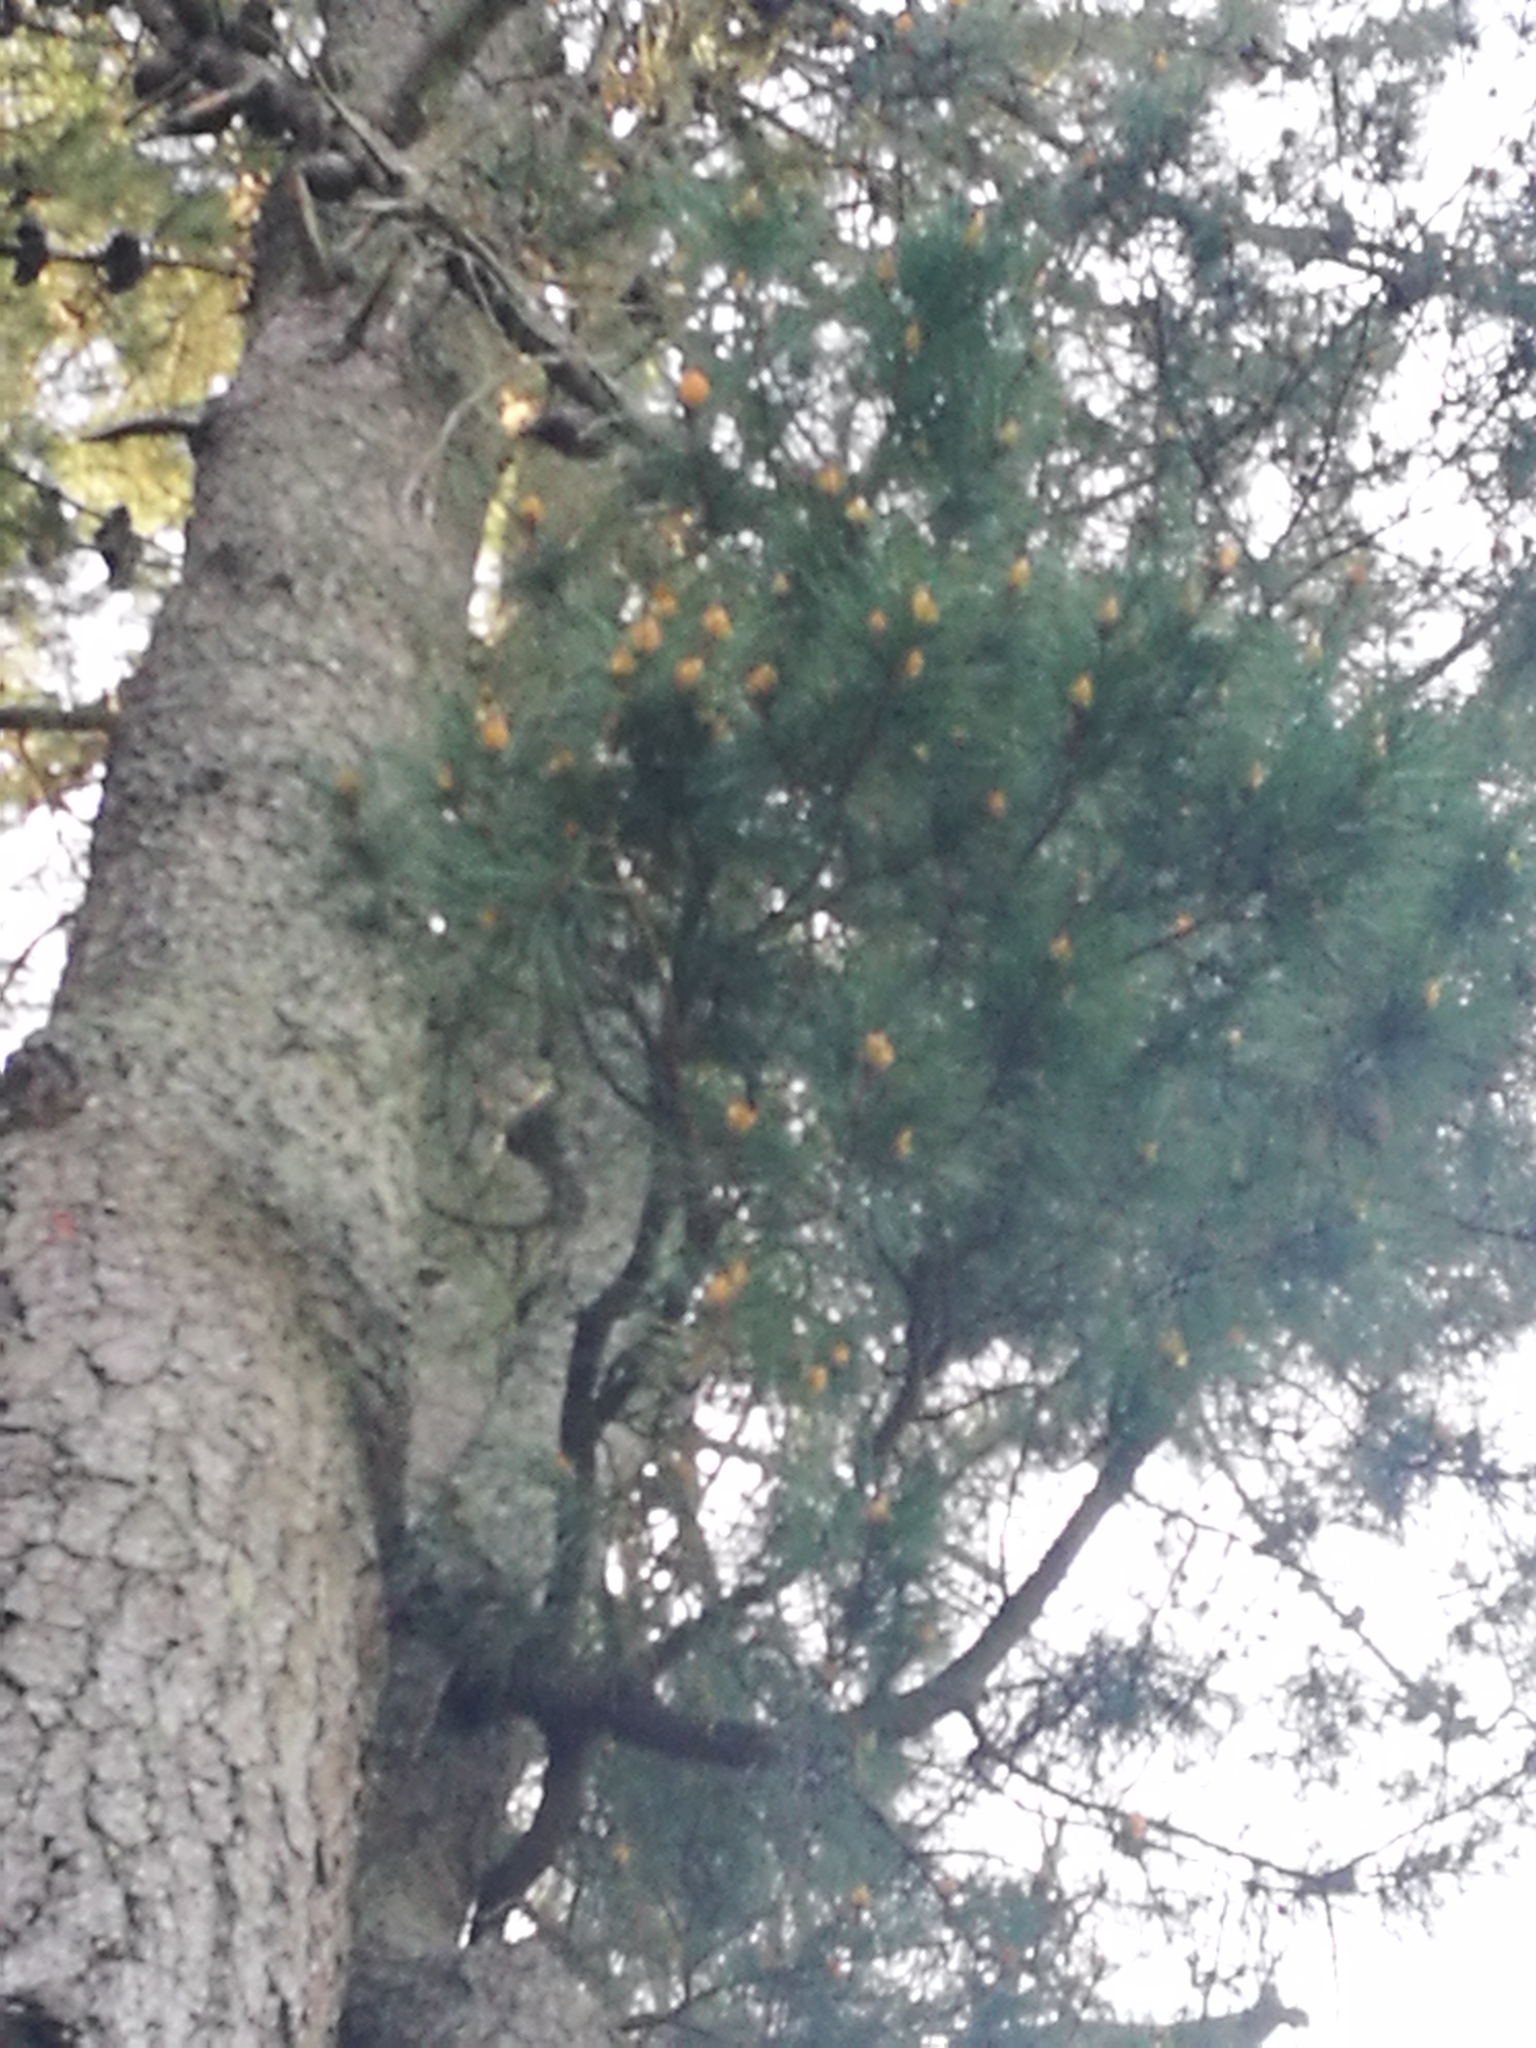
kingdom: Plantae
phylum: Tracheophyta
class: Pinopsida
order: Pinales
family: Pinaceae
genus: Pinus
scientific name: Pinus radiata
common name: Monterey pine
